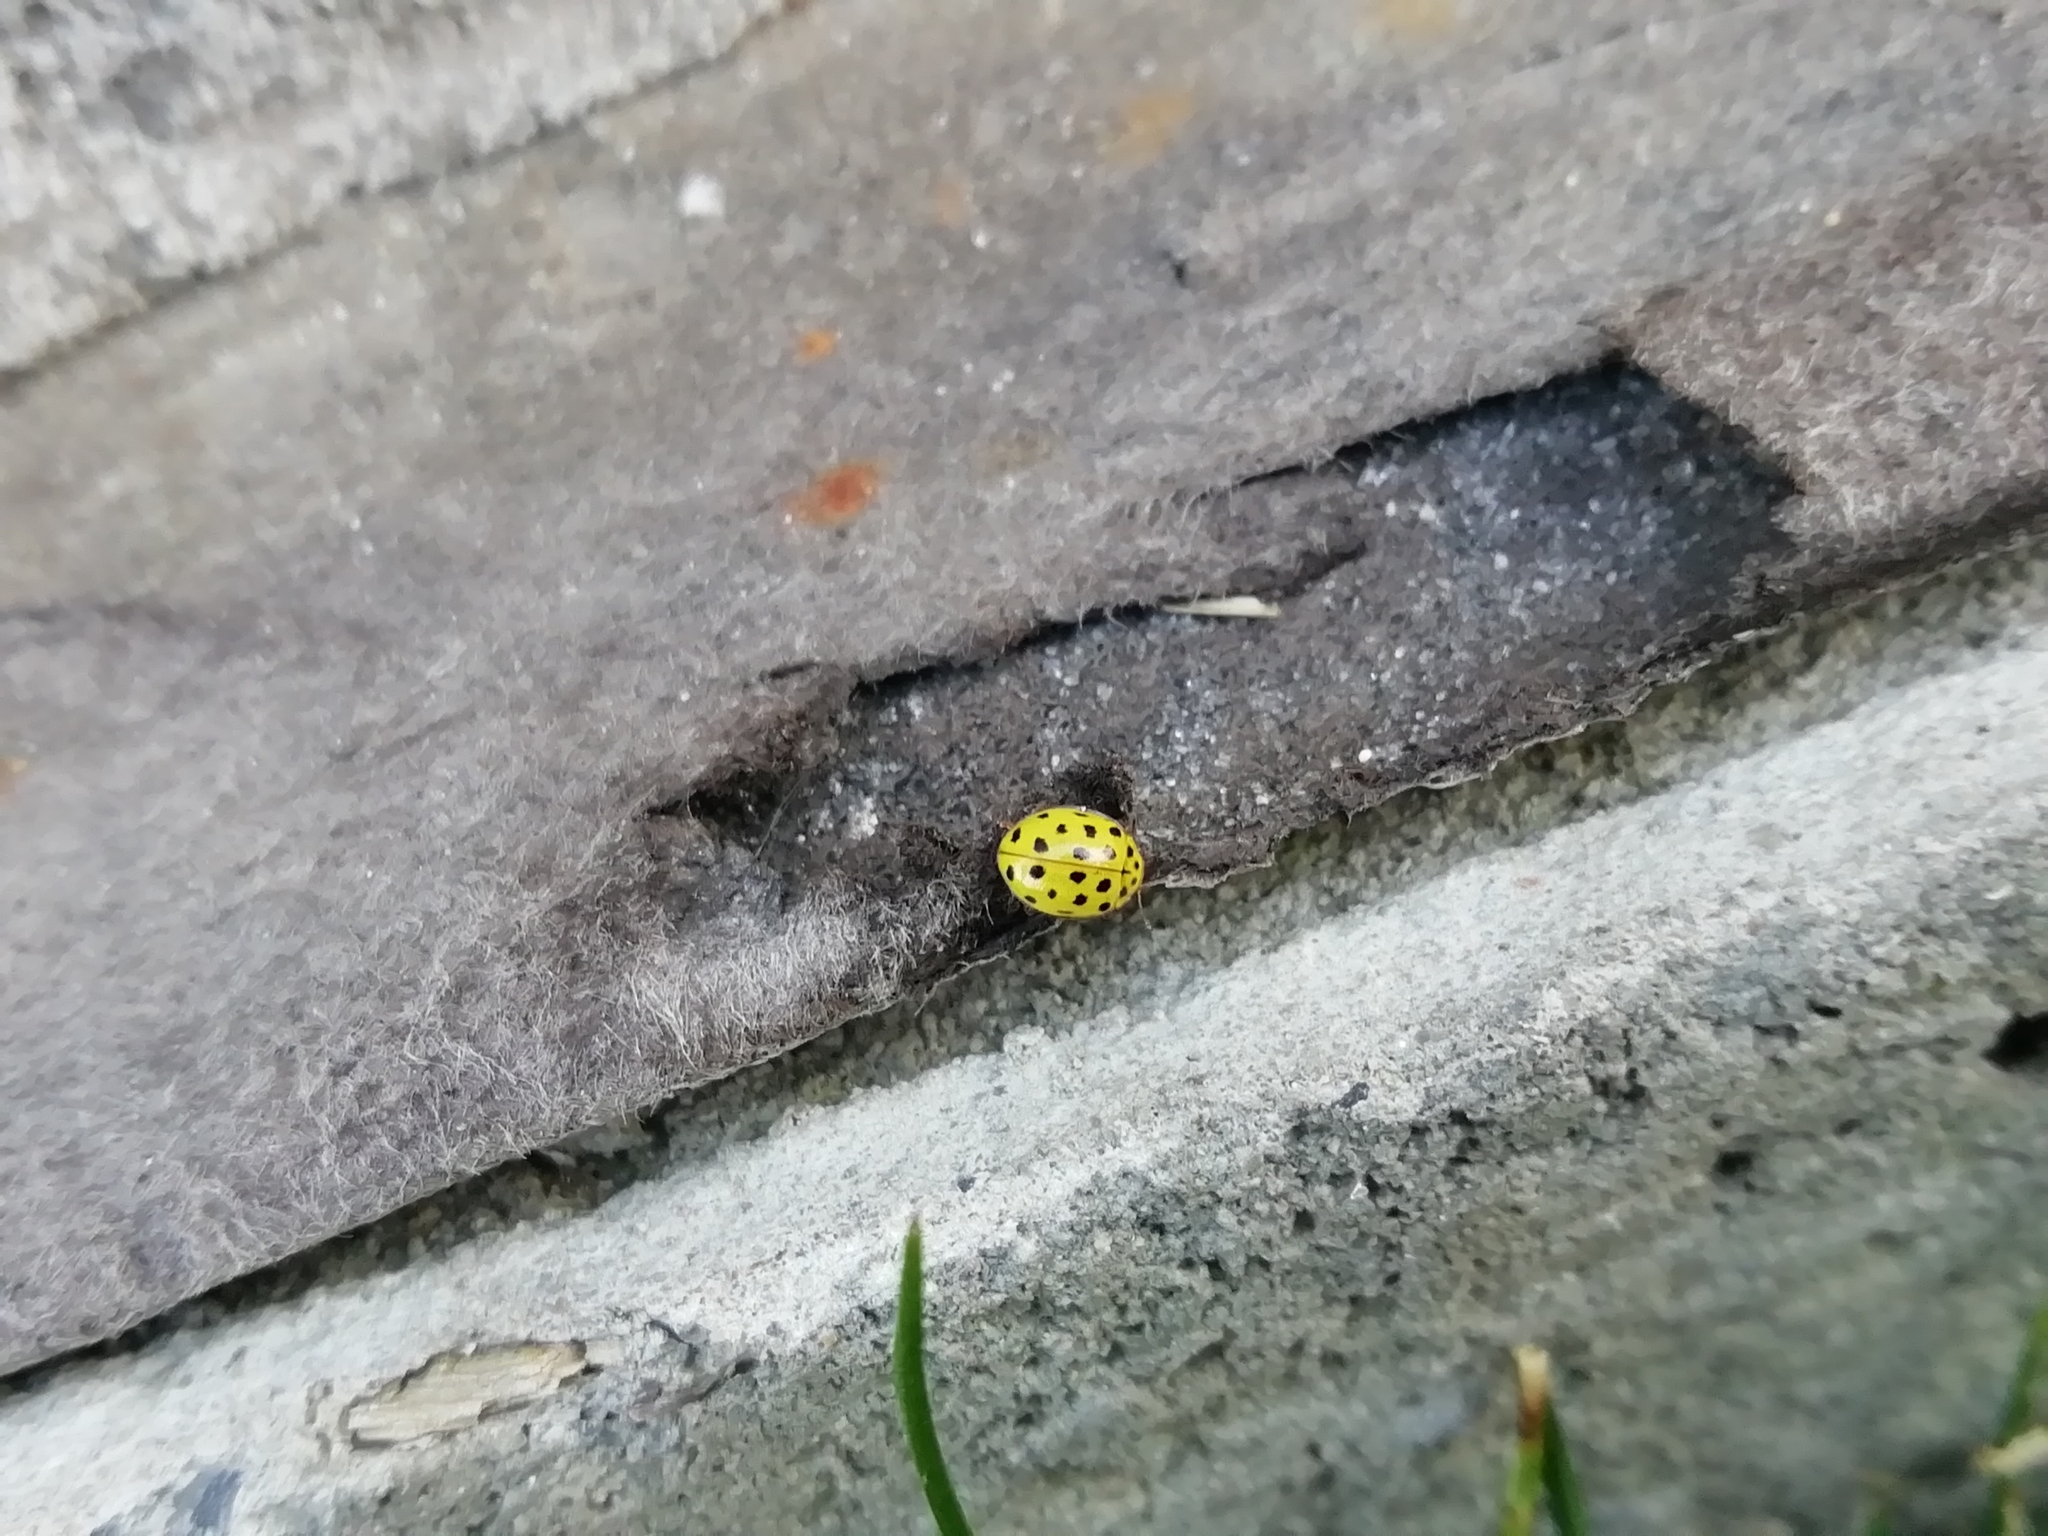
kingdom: Animalia
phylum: Arthropoda
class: Insecta
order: Coleoptera
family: Coccinellidae
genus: Psyllobora
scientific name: Psyllobora vigintiduopunctata
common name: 22-spot ladybird
